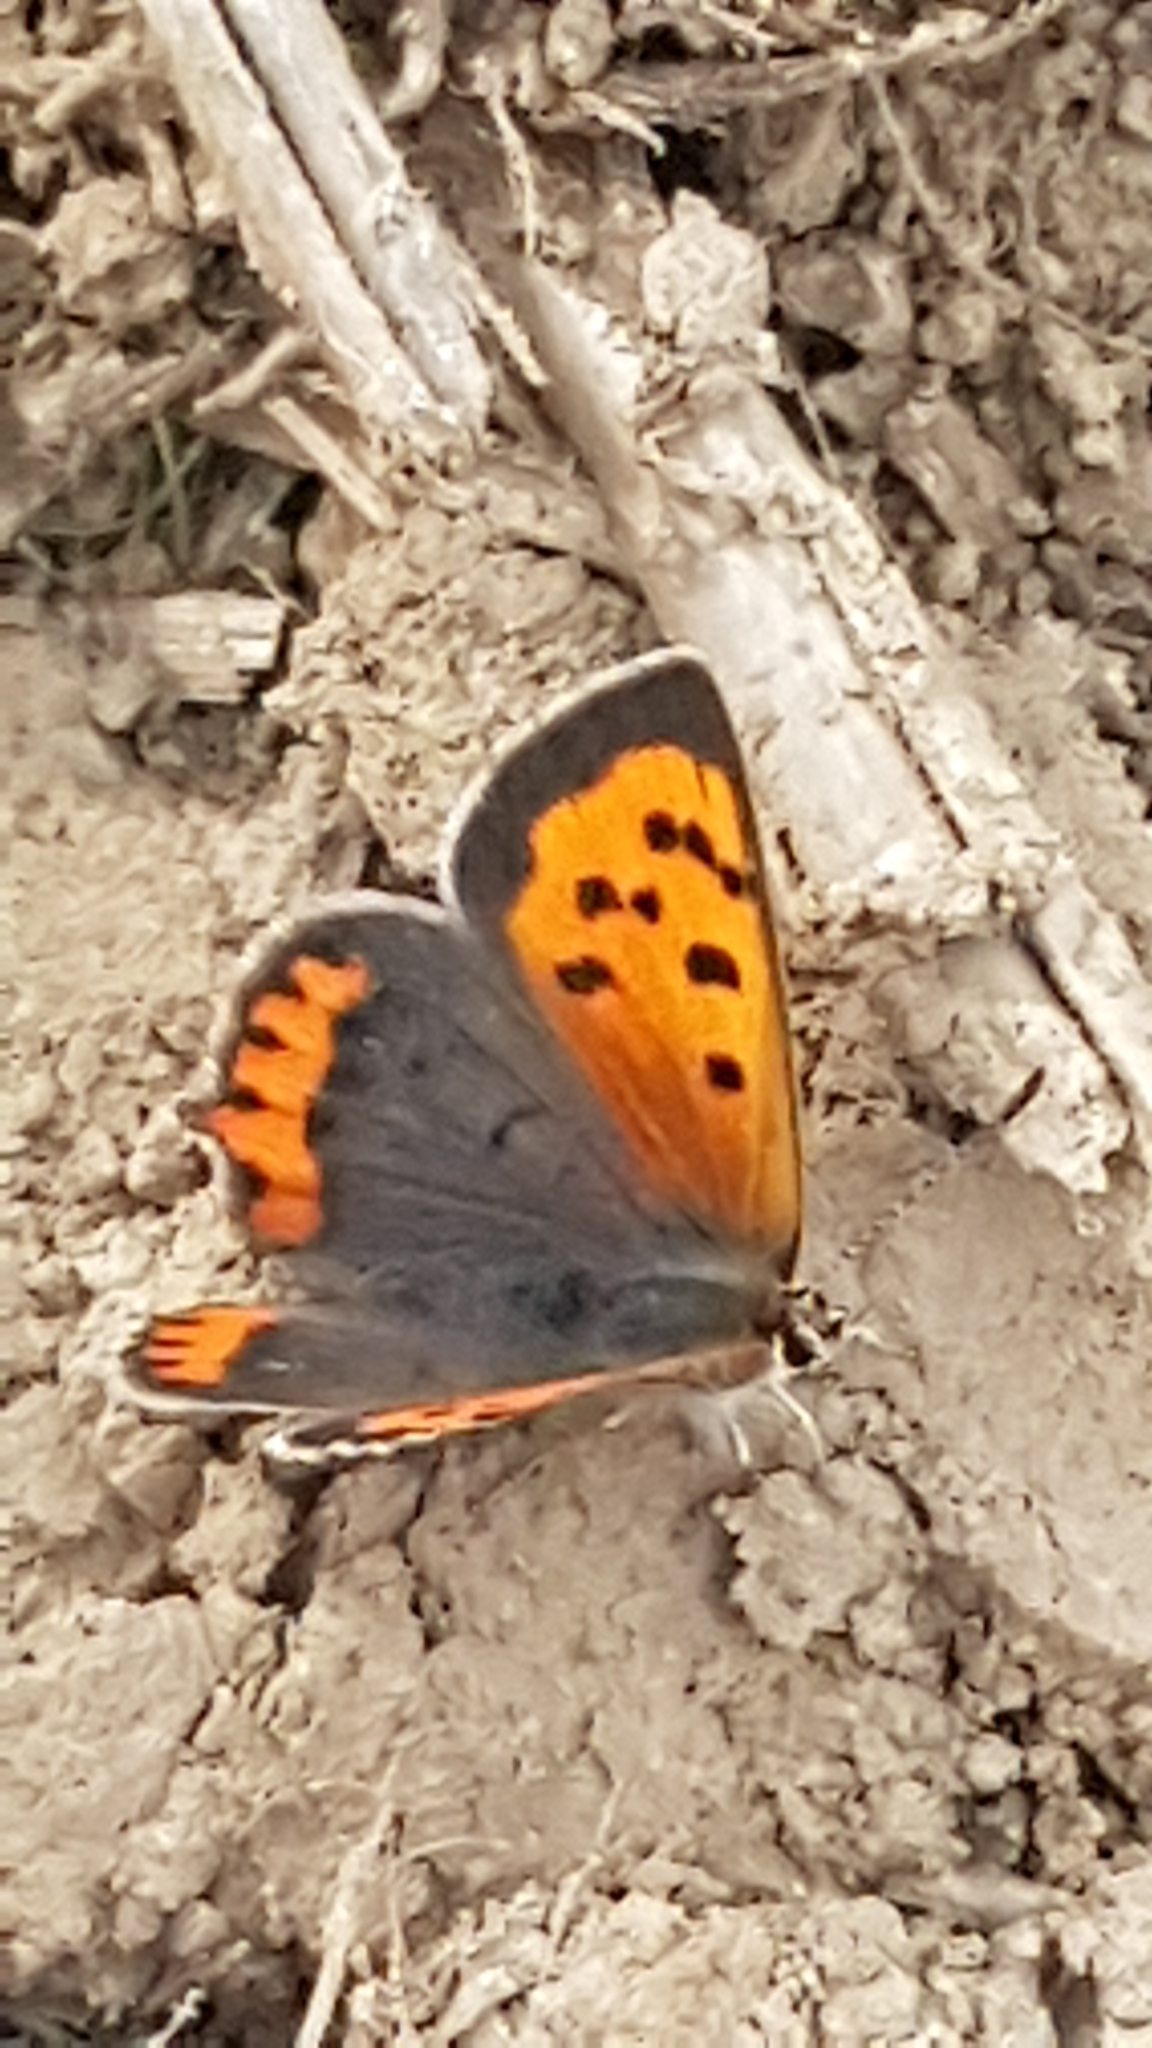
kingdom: Animalia
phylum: Arthropoda
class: Insecta
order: Lepidoptera
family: Lycaenidae
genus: Lycaena
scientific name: Lycaena phlaeas
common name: Small copper
